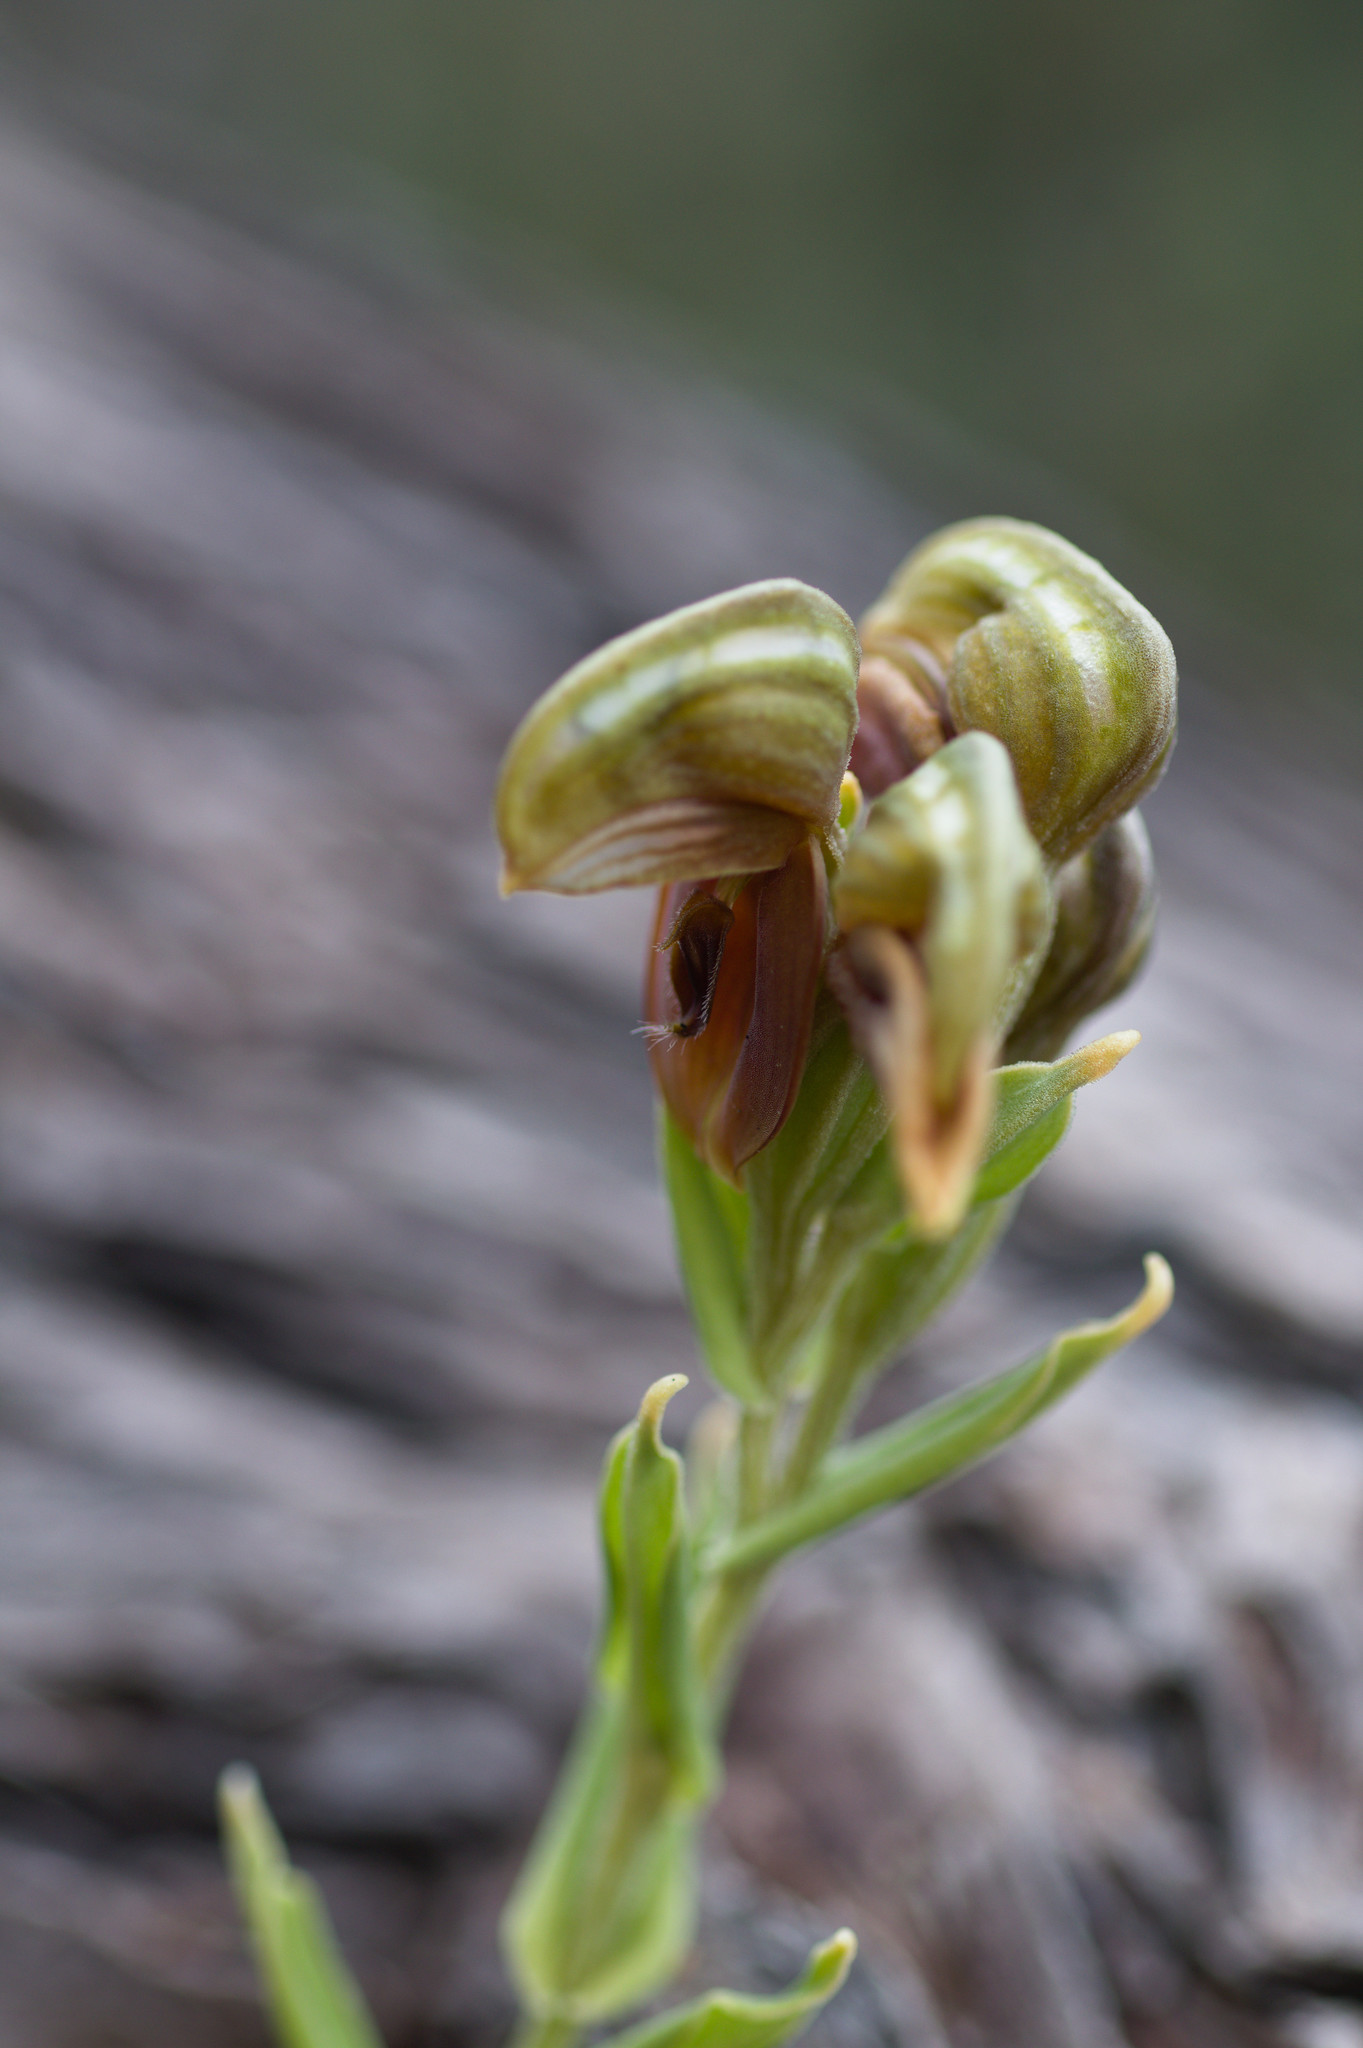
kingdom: Plantae
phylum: Tracheophyta
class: Liliopsida
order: Asparagales
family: Orchidaceae
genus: Pterostylis
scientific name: Pterostylis sanguinea
